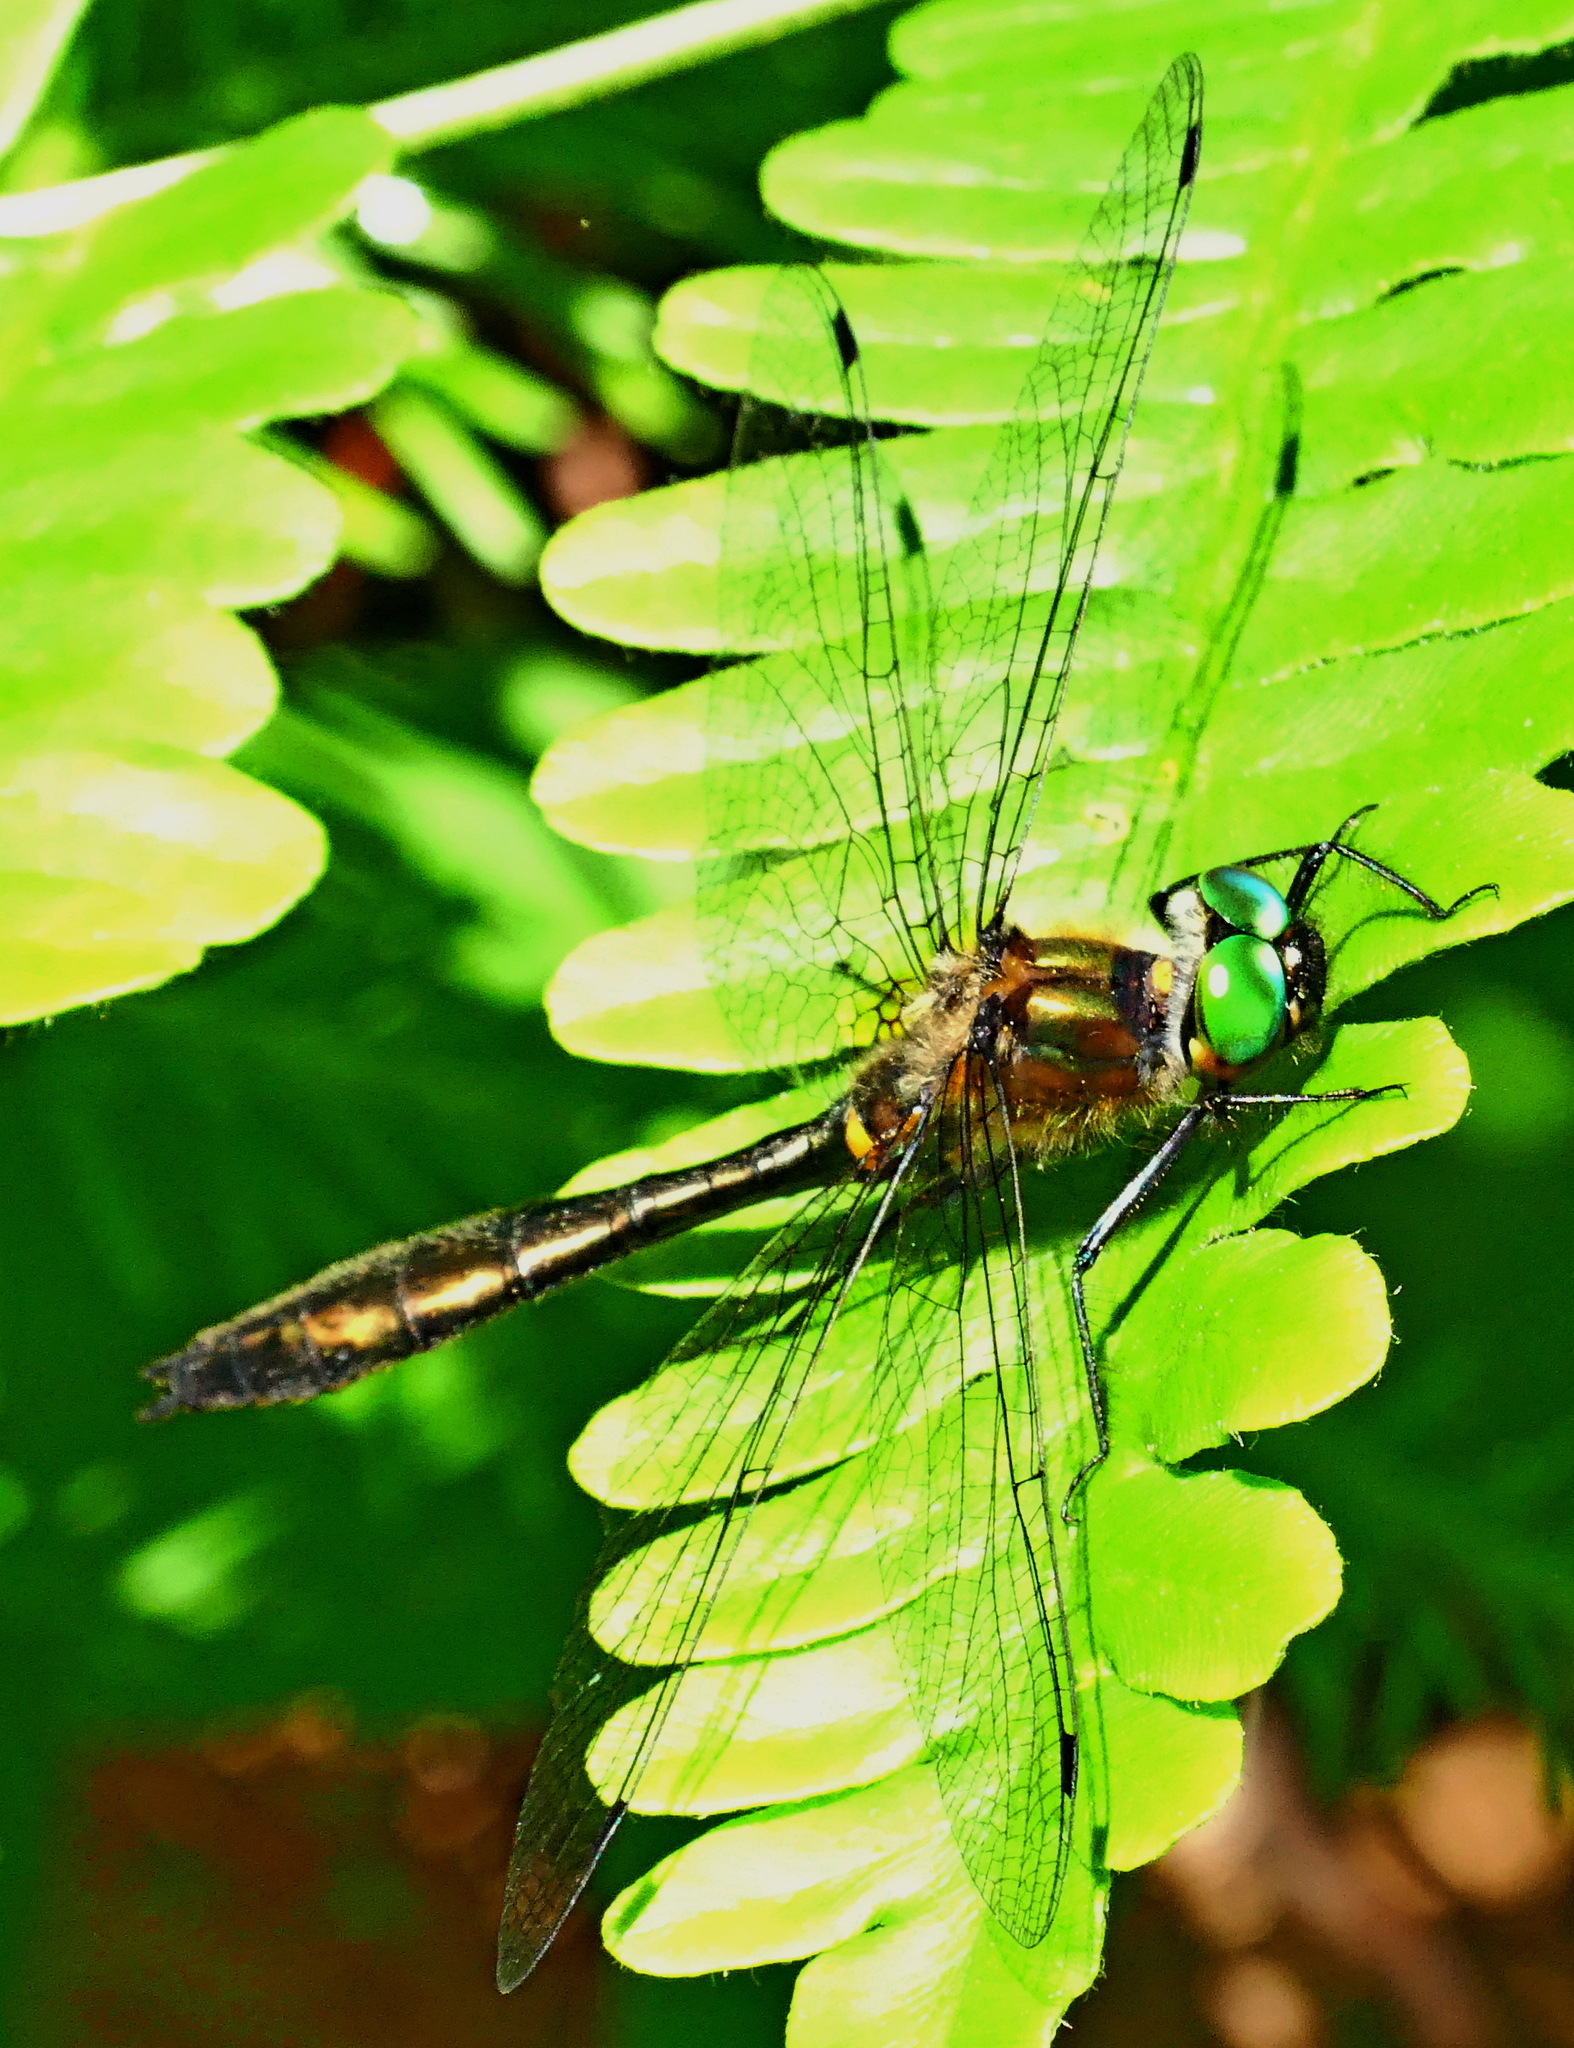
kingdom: Animalia
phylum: Arthropoda
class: Insecta
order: Odonata
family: Corduliidae
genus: Dorocordulia
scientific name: Dorocordulia libera
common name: Racket-tailed emerald
